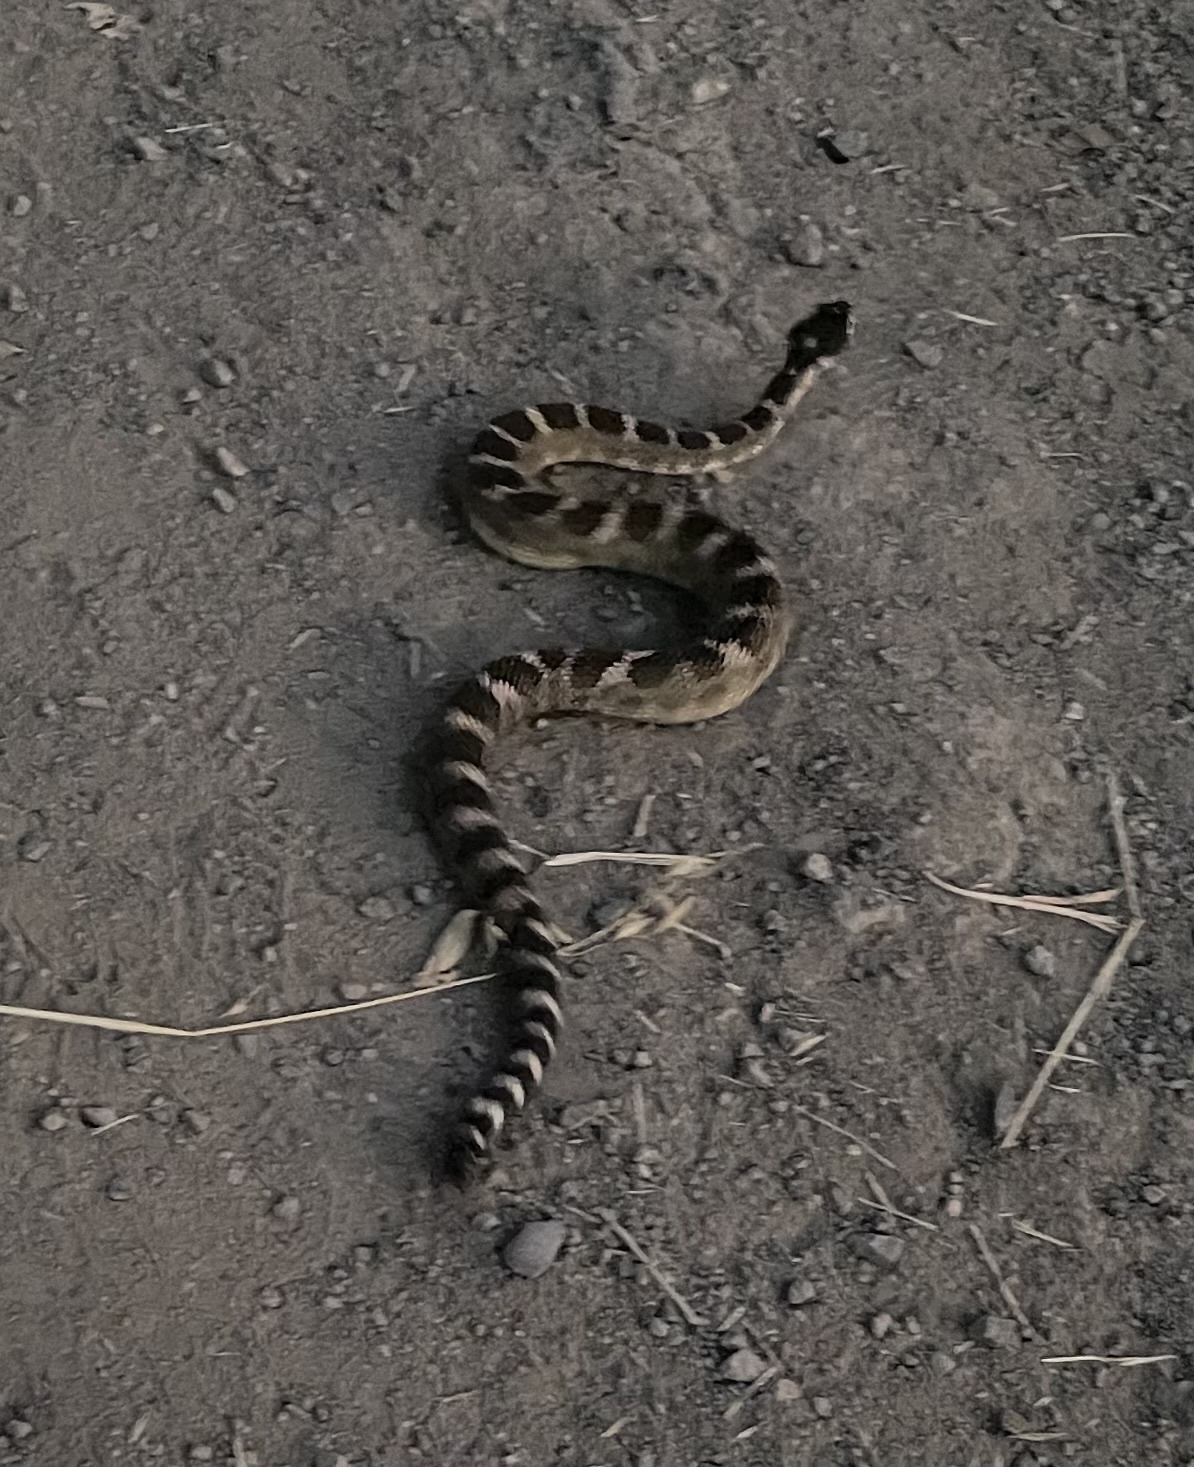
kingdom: Animalia
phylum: Chordata
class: Squamata
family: Viperidae
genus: Crotalus
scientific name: Crotalus oreganus
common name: Abyssus
